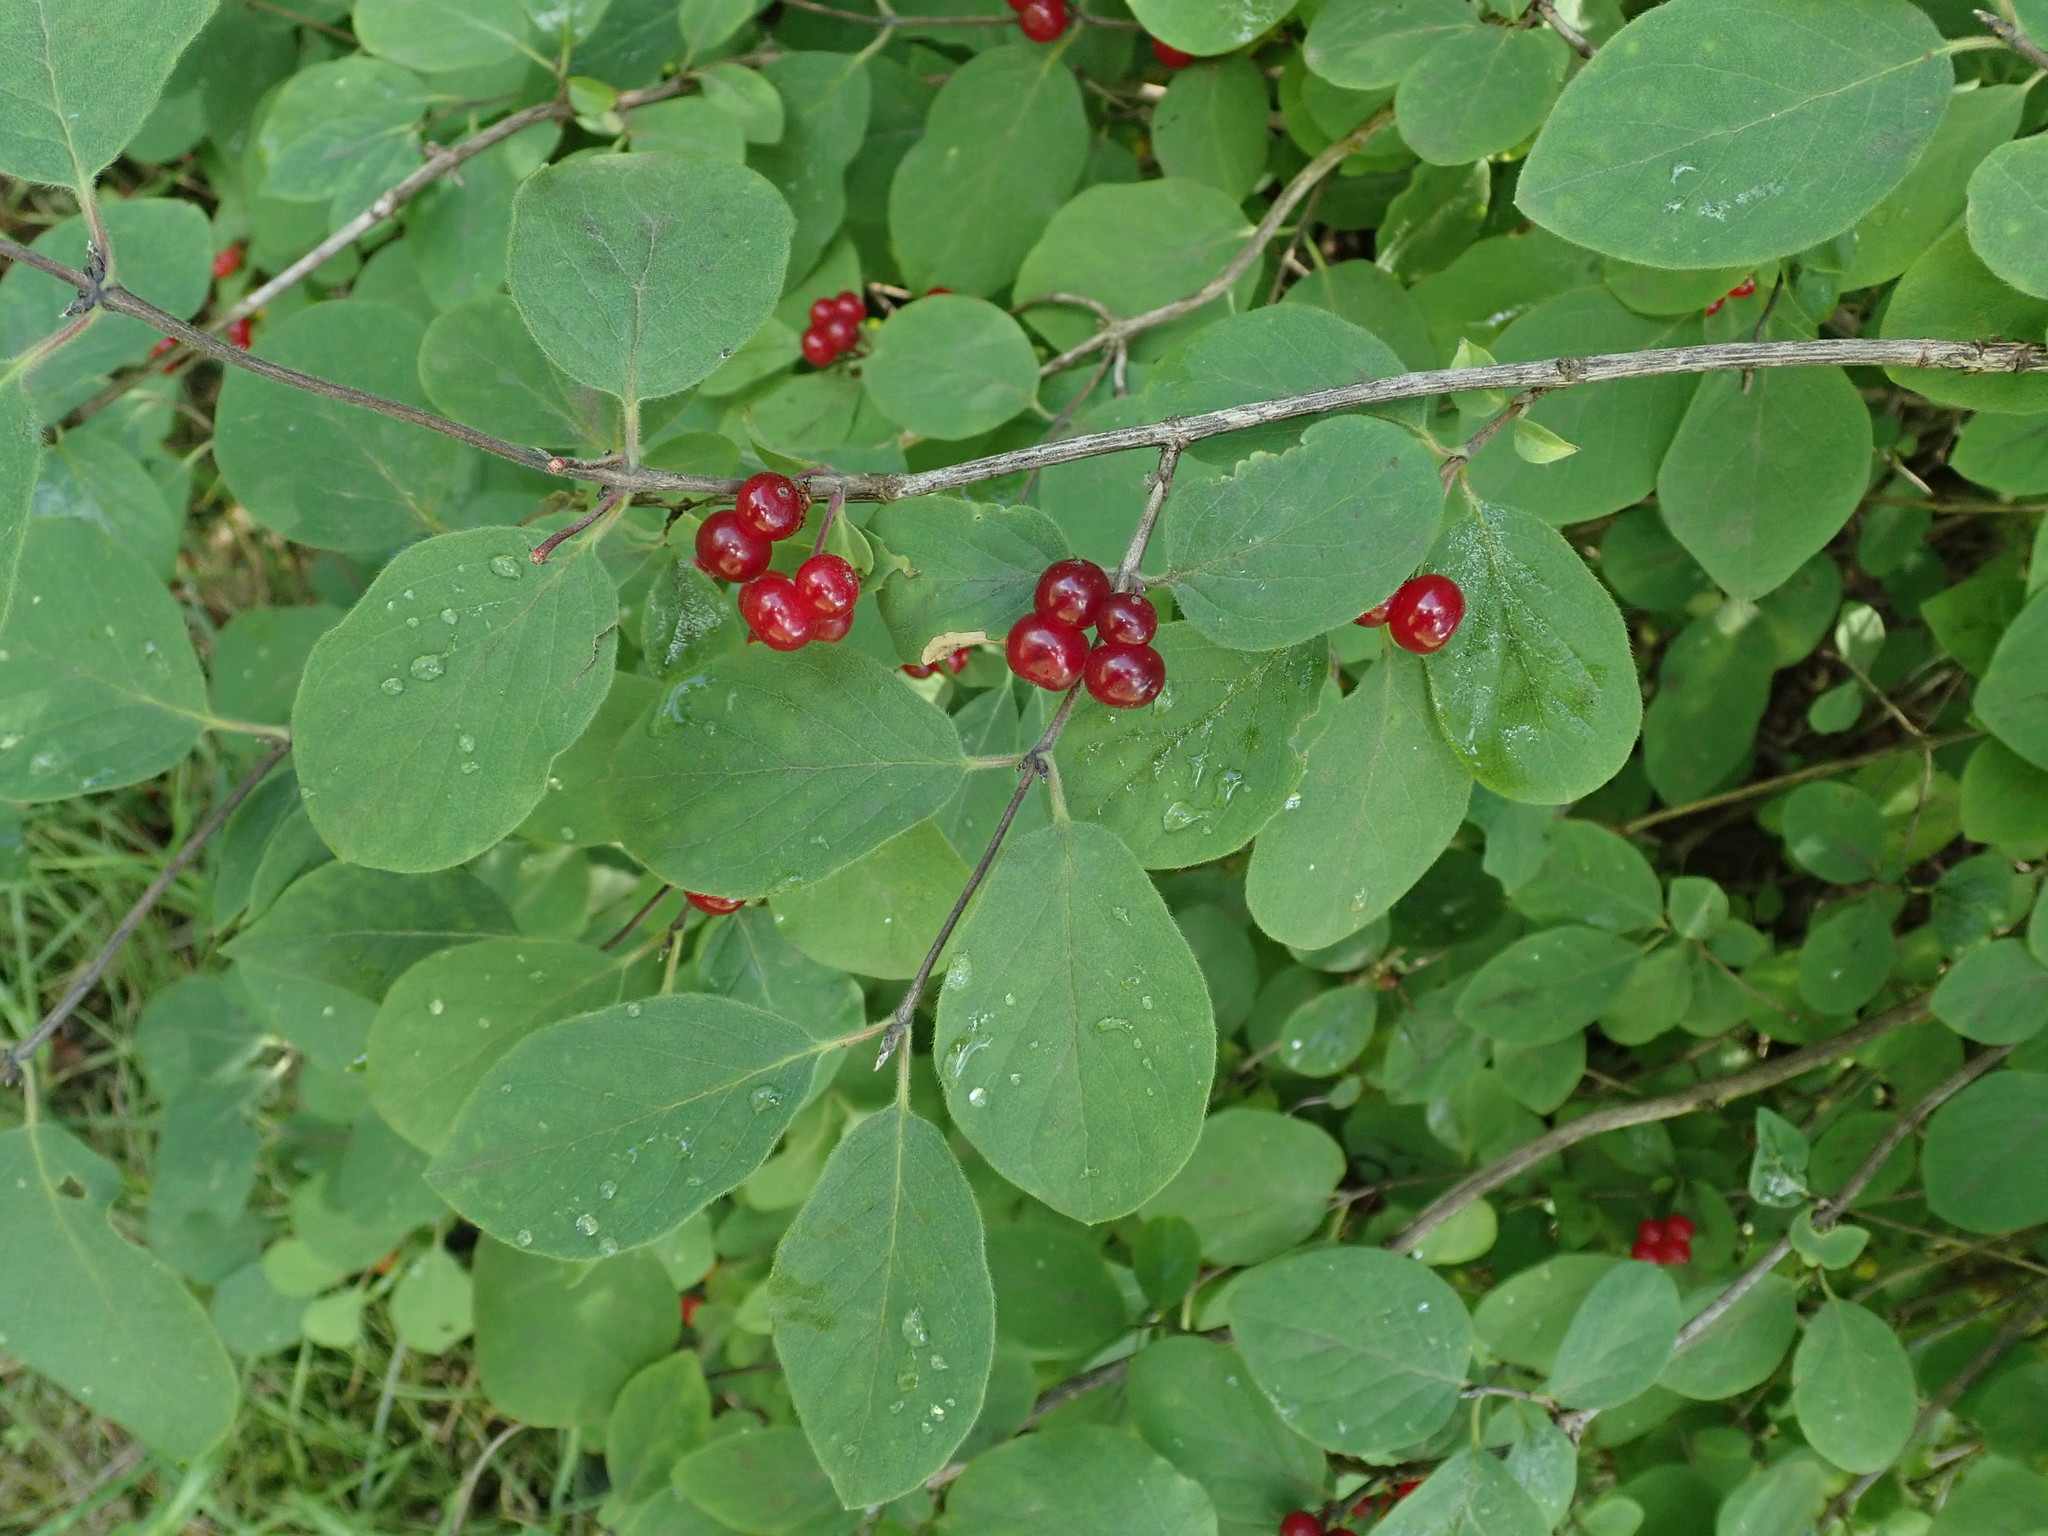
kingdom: Plantae
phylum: Tracheophyta
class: Magnoliopsida
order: Dipsacales
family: Caprifoliaceae
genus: Lonicera
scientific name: Lonicera xylosteum
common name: Fly honeysuckle
